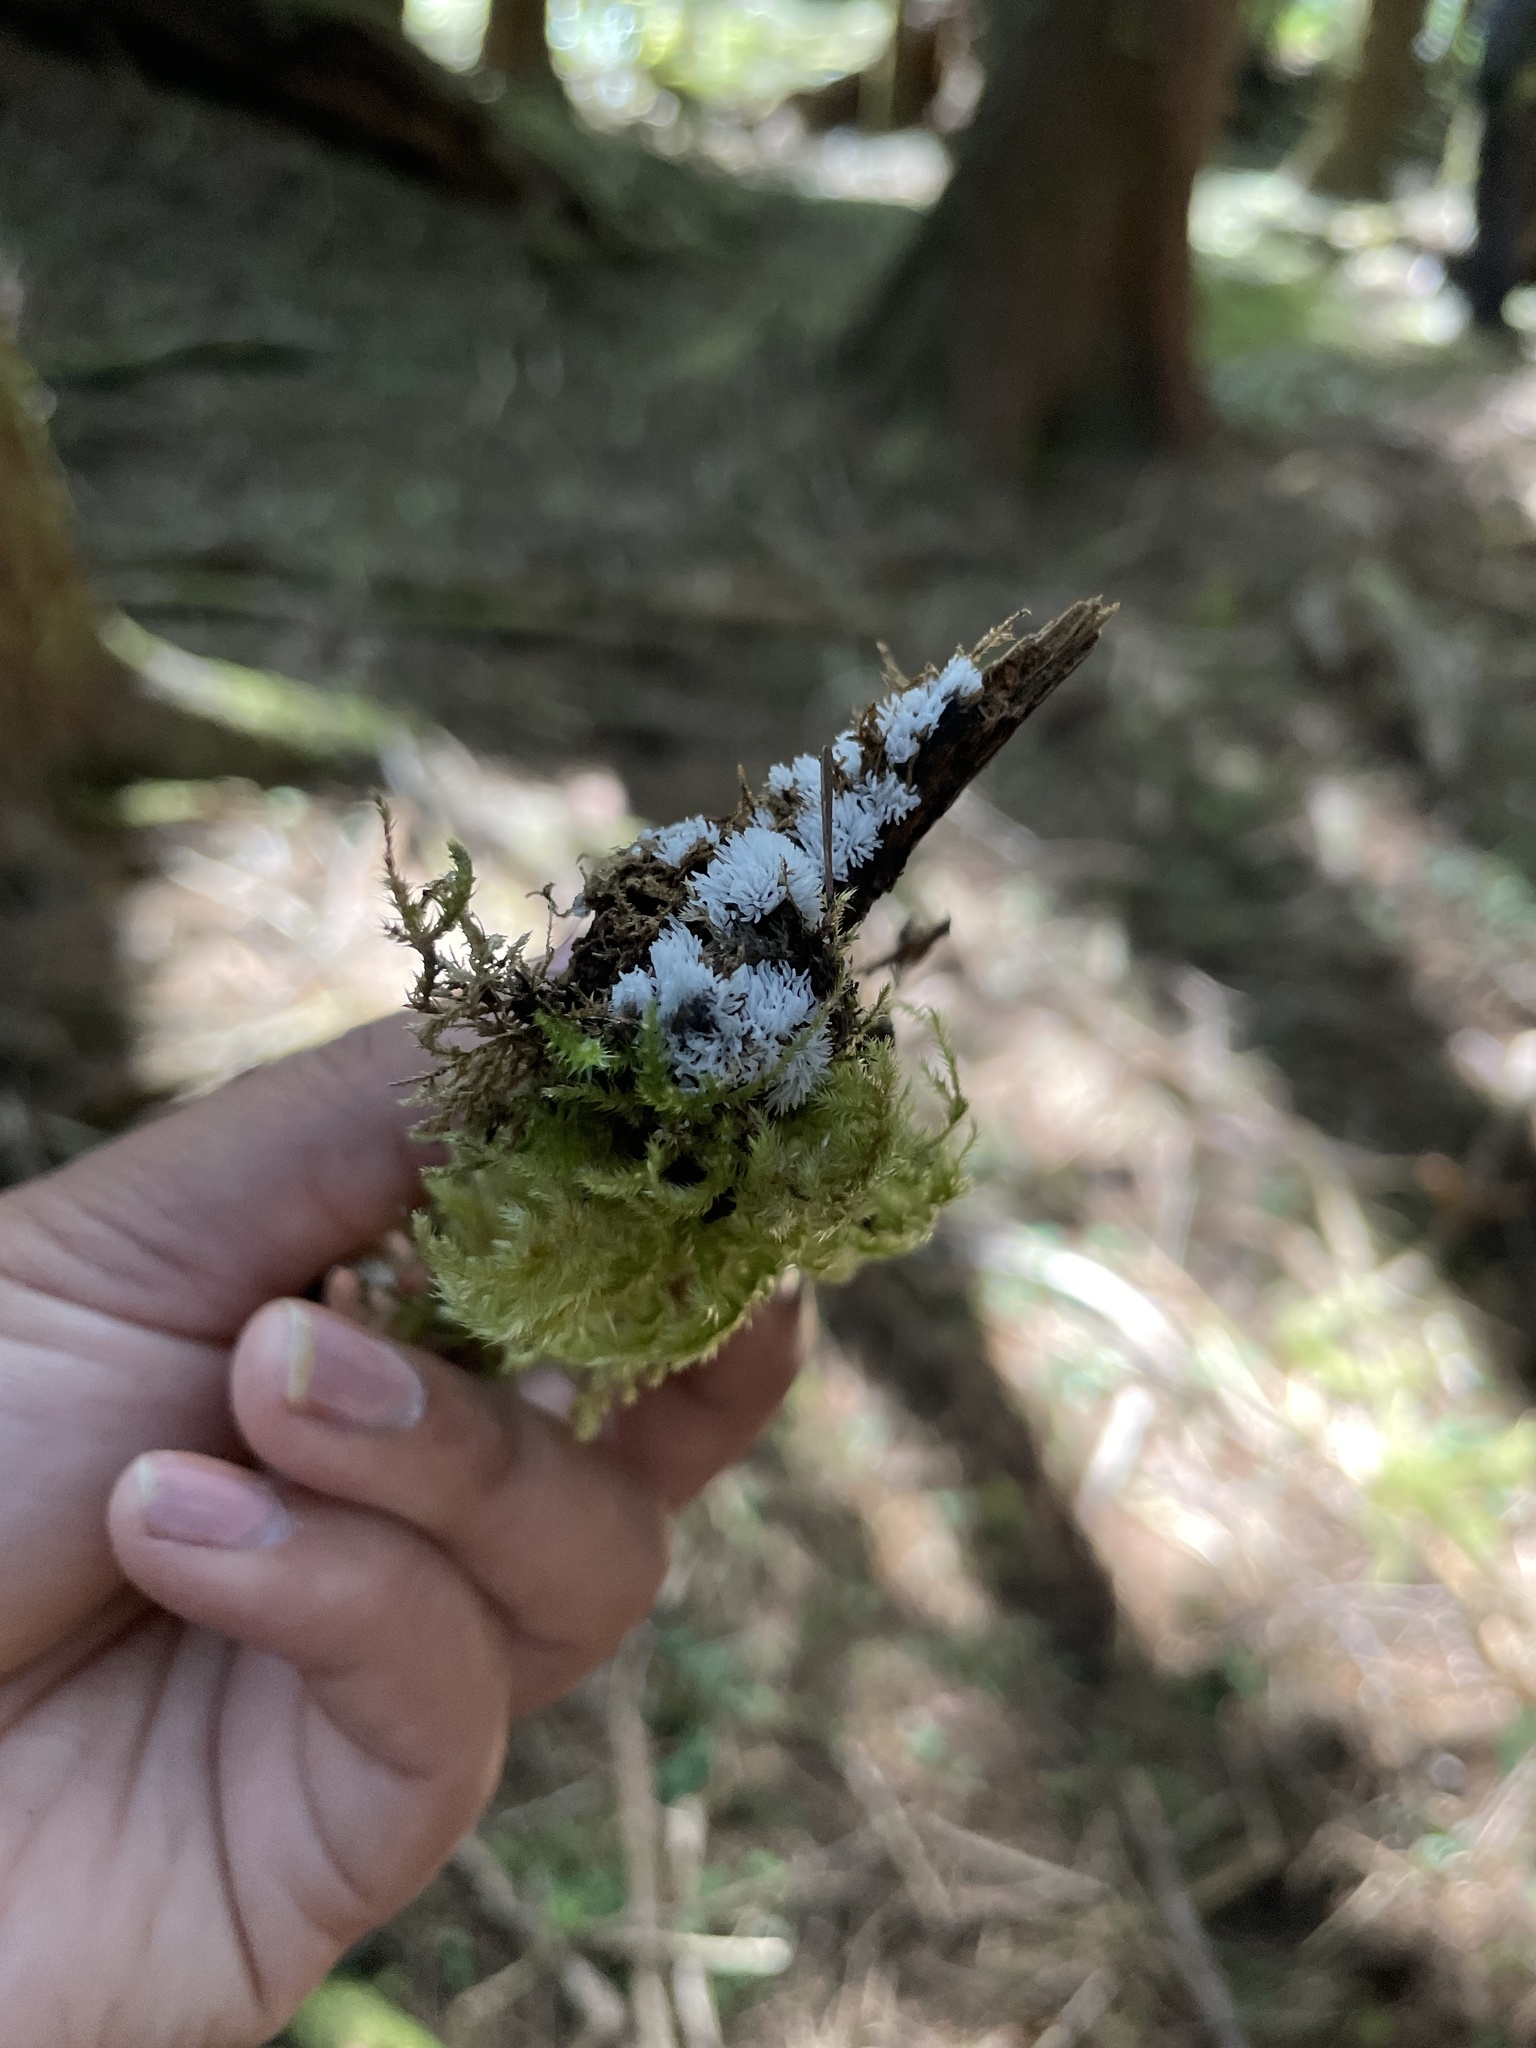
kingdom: Protozoa
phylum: Mycetozoa
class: Protosteliomycetes
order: Ceratiomyxales
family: Ceratiomyxaceae
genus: Ceratiomyxa
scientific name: Ceratiomyxa fruticulosa
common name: Honeycomb coral slime mold
